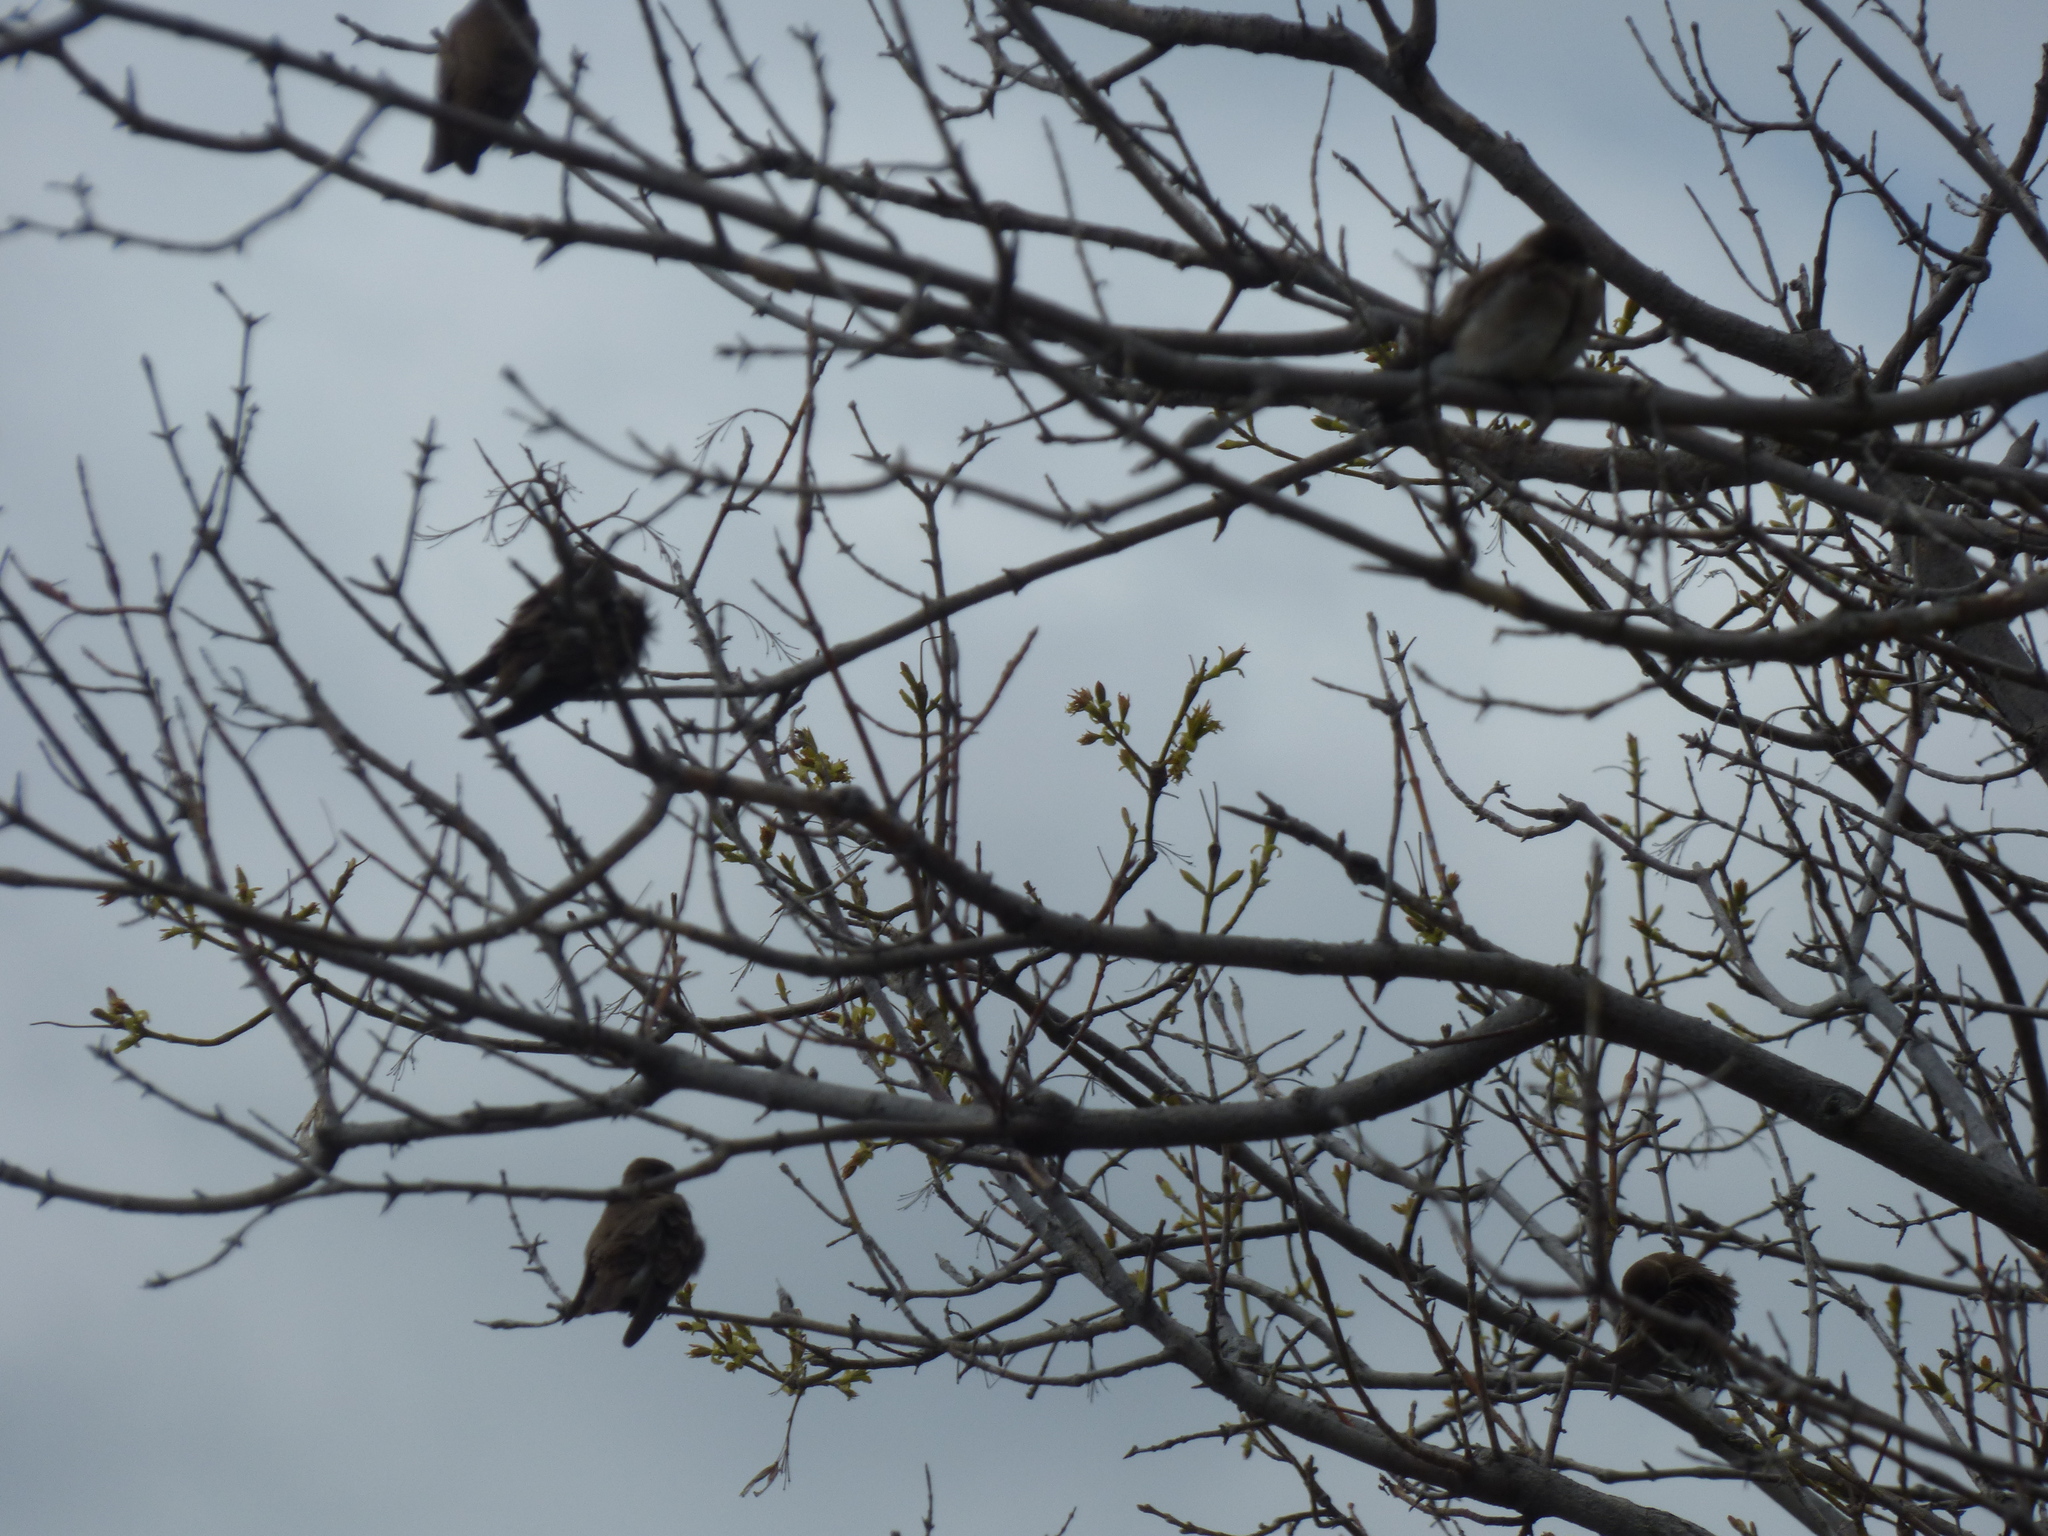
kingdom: Animalia
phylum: Chordata
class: Aves
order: Passeriformes
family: Hirundinidae
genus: Stelgidopteryx
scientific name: Stelgidopteryx serripennis
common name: Northern rough-winged swallow
